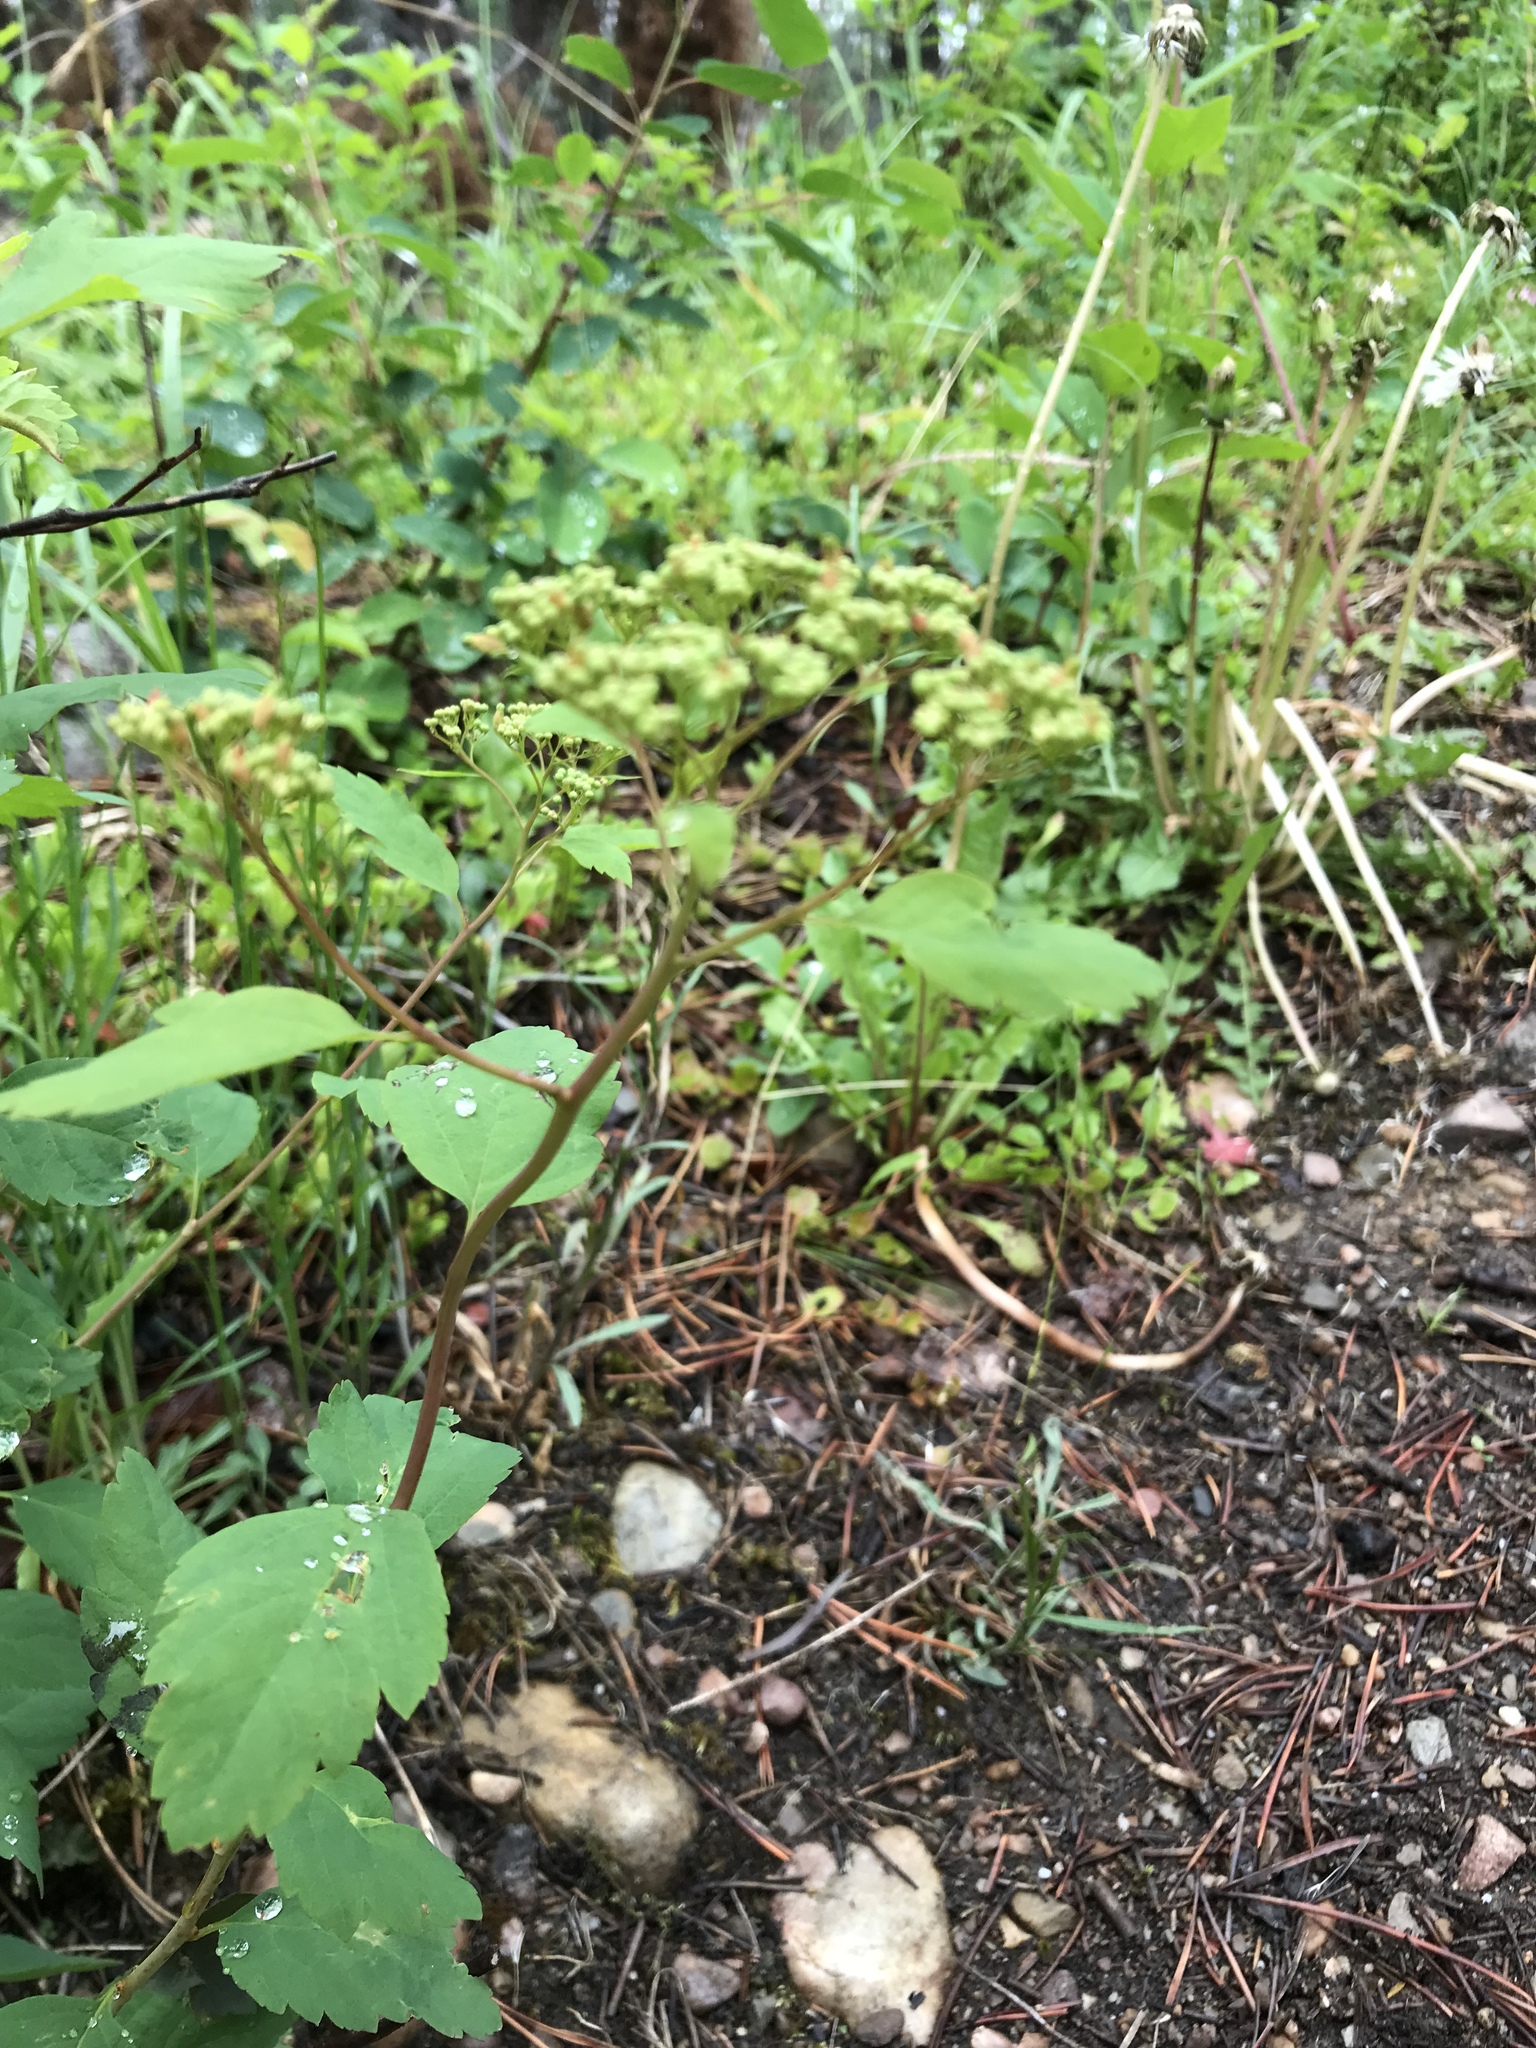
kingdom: Plantae
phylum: Tracheophyta
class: Magnoliopsida
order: Rosales
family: Rosaceae
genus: Spiraea
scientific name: Spiraea lucida
